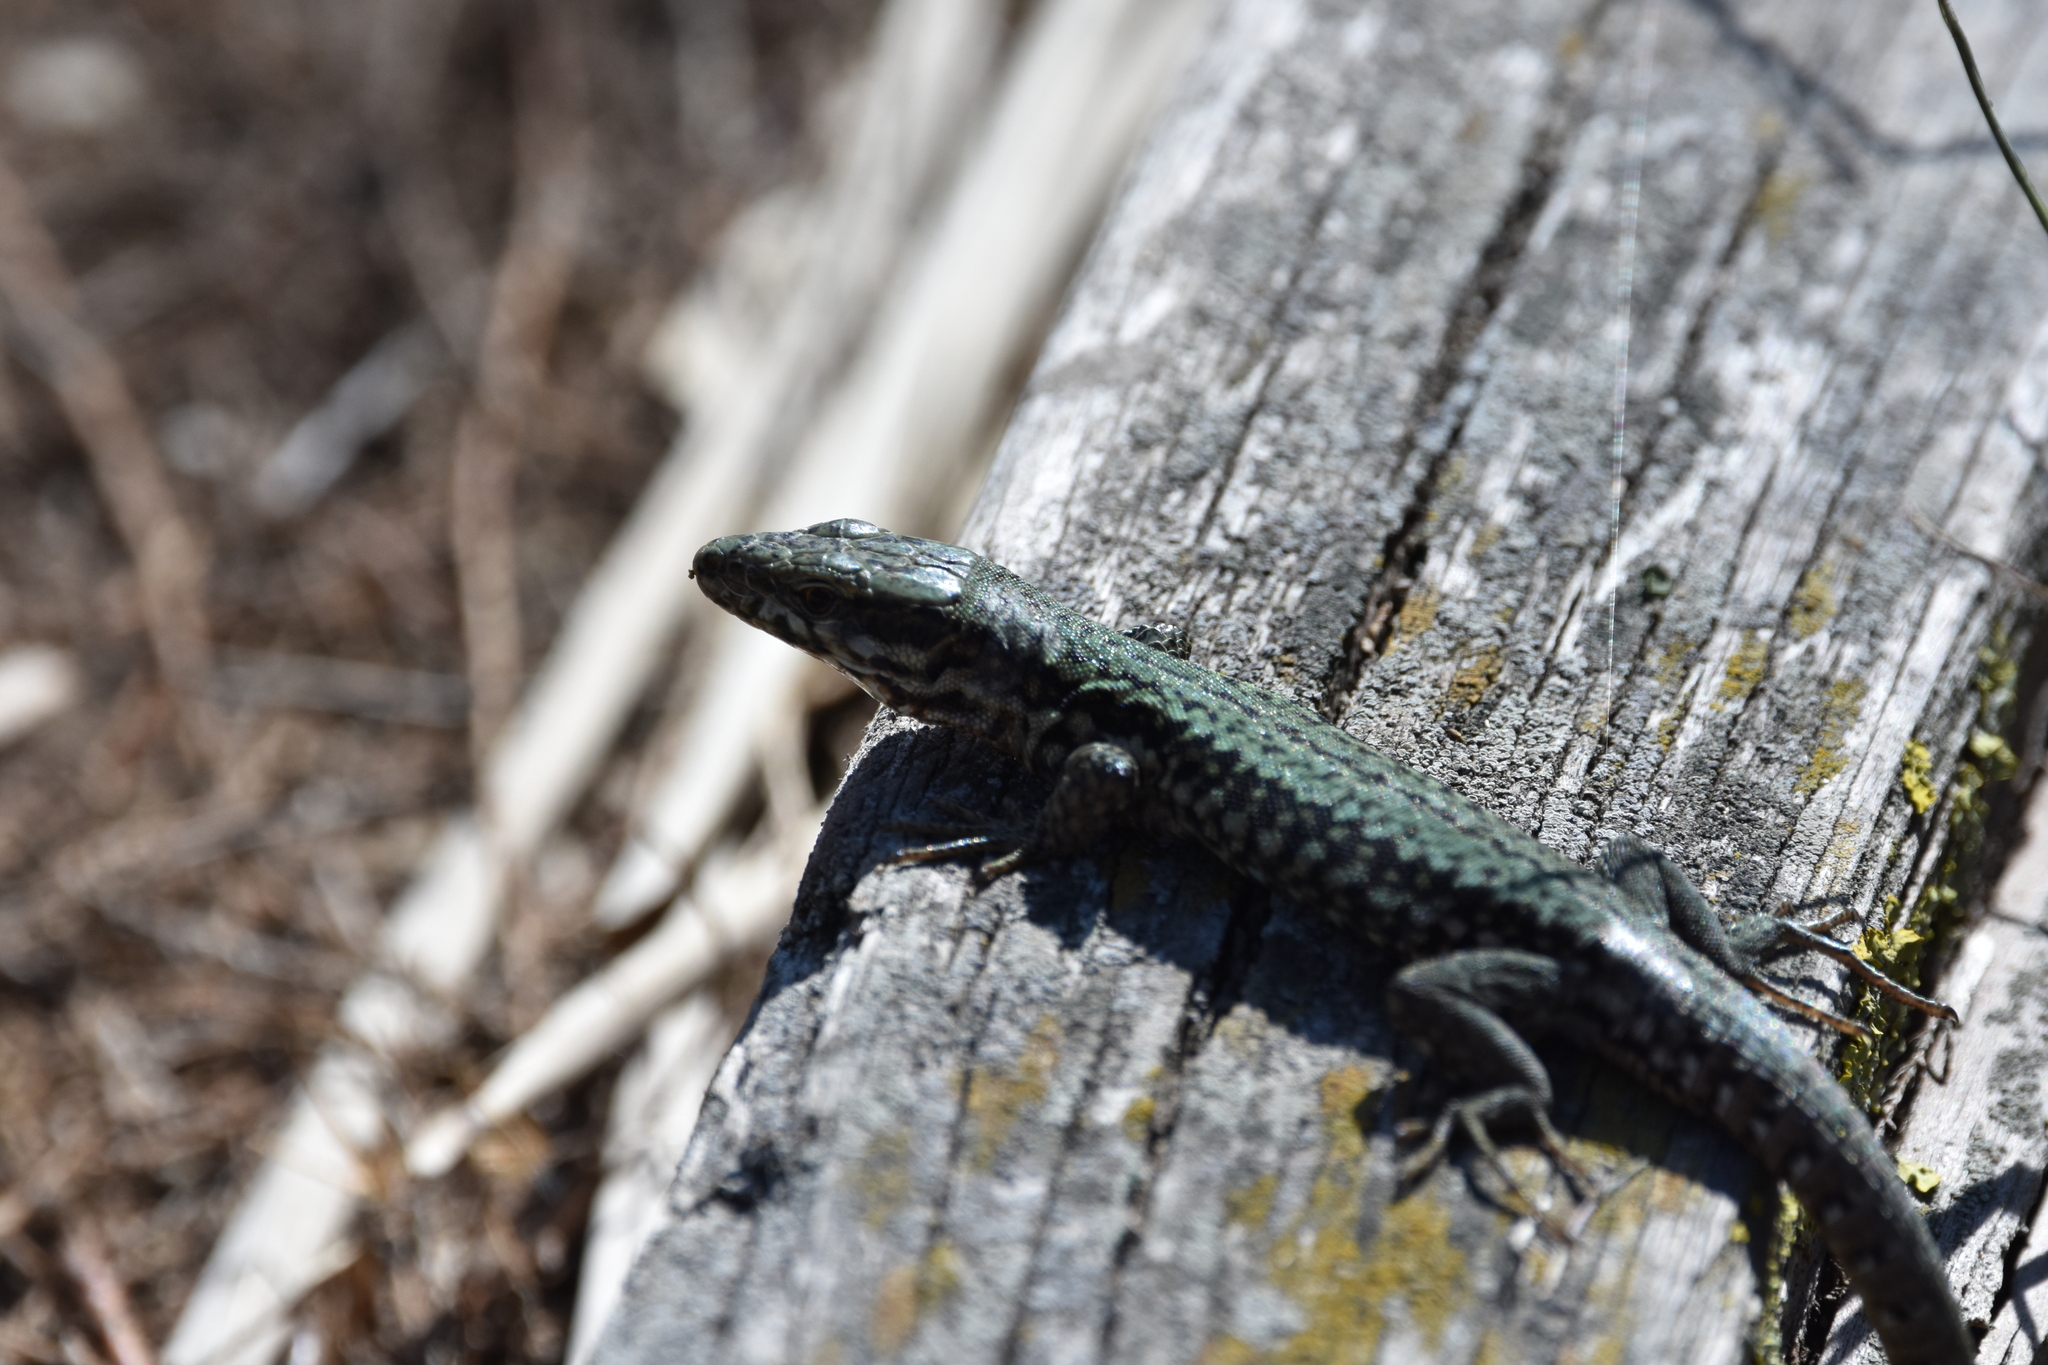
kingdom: Animalia
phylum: Chordata
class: Squamata
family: Lacertidae
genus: Podarcis
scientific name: Podarcis muralis
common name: Common wall lizard
